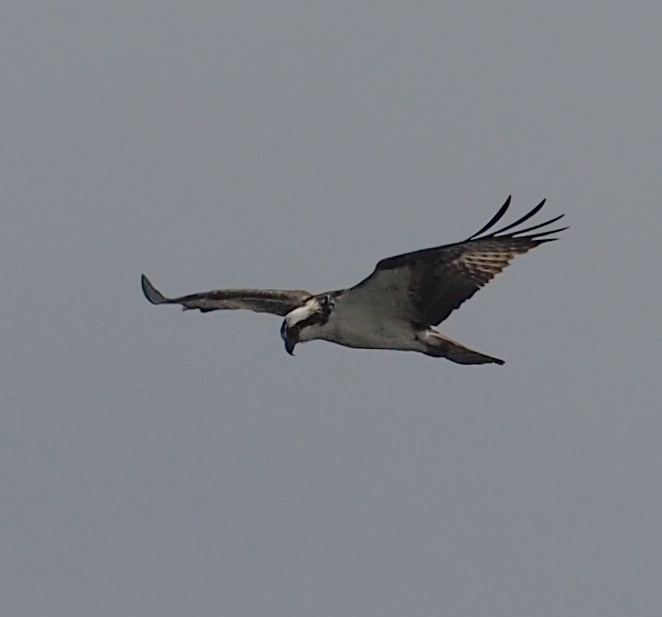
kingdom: Animalia
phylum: Chordata
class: Aves
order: Accipitriformes
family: Pandionidae
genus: Pandion
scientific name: Pandion haliaetus
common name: Osprey
